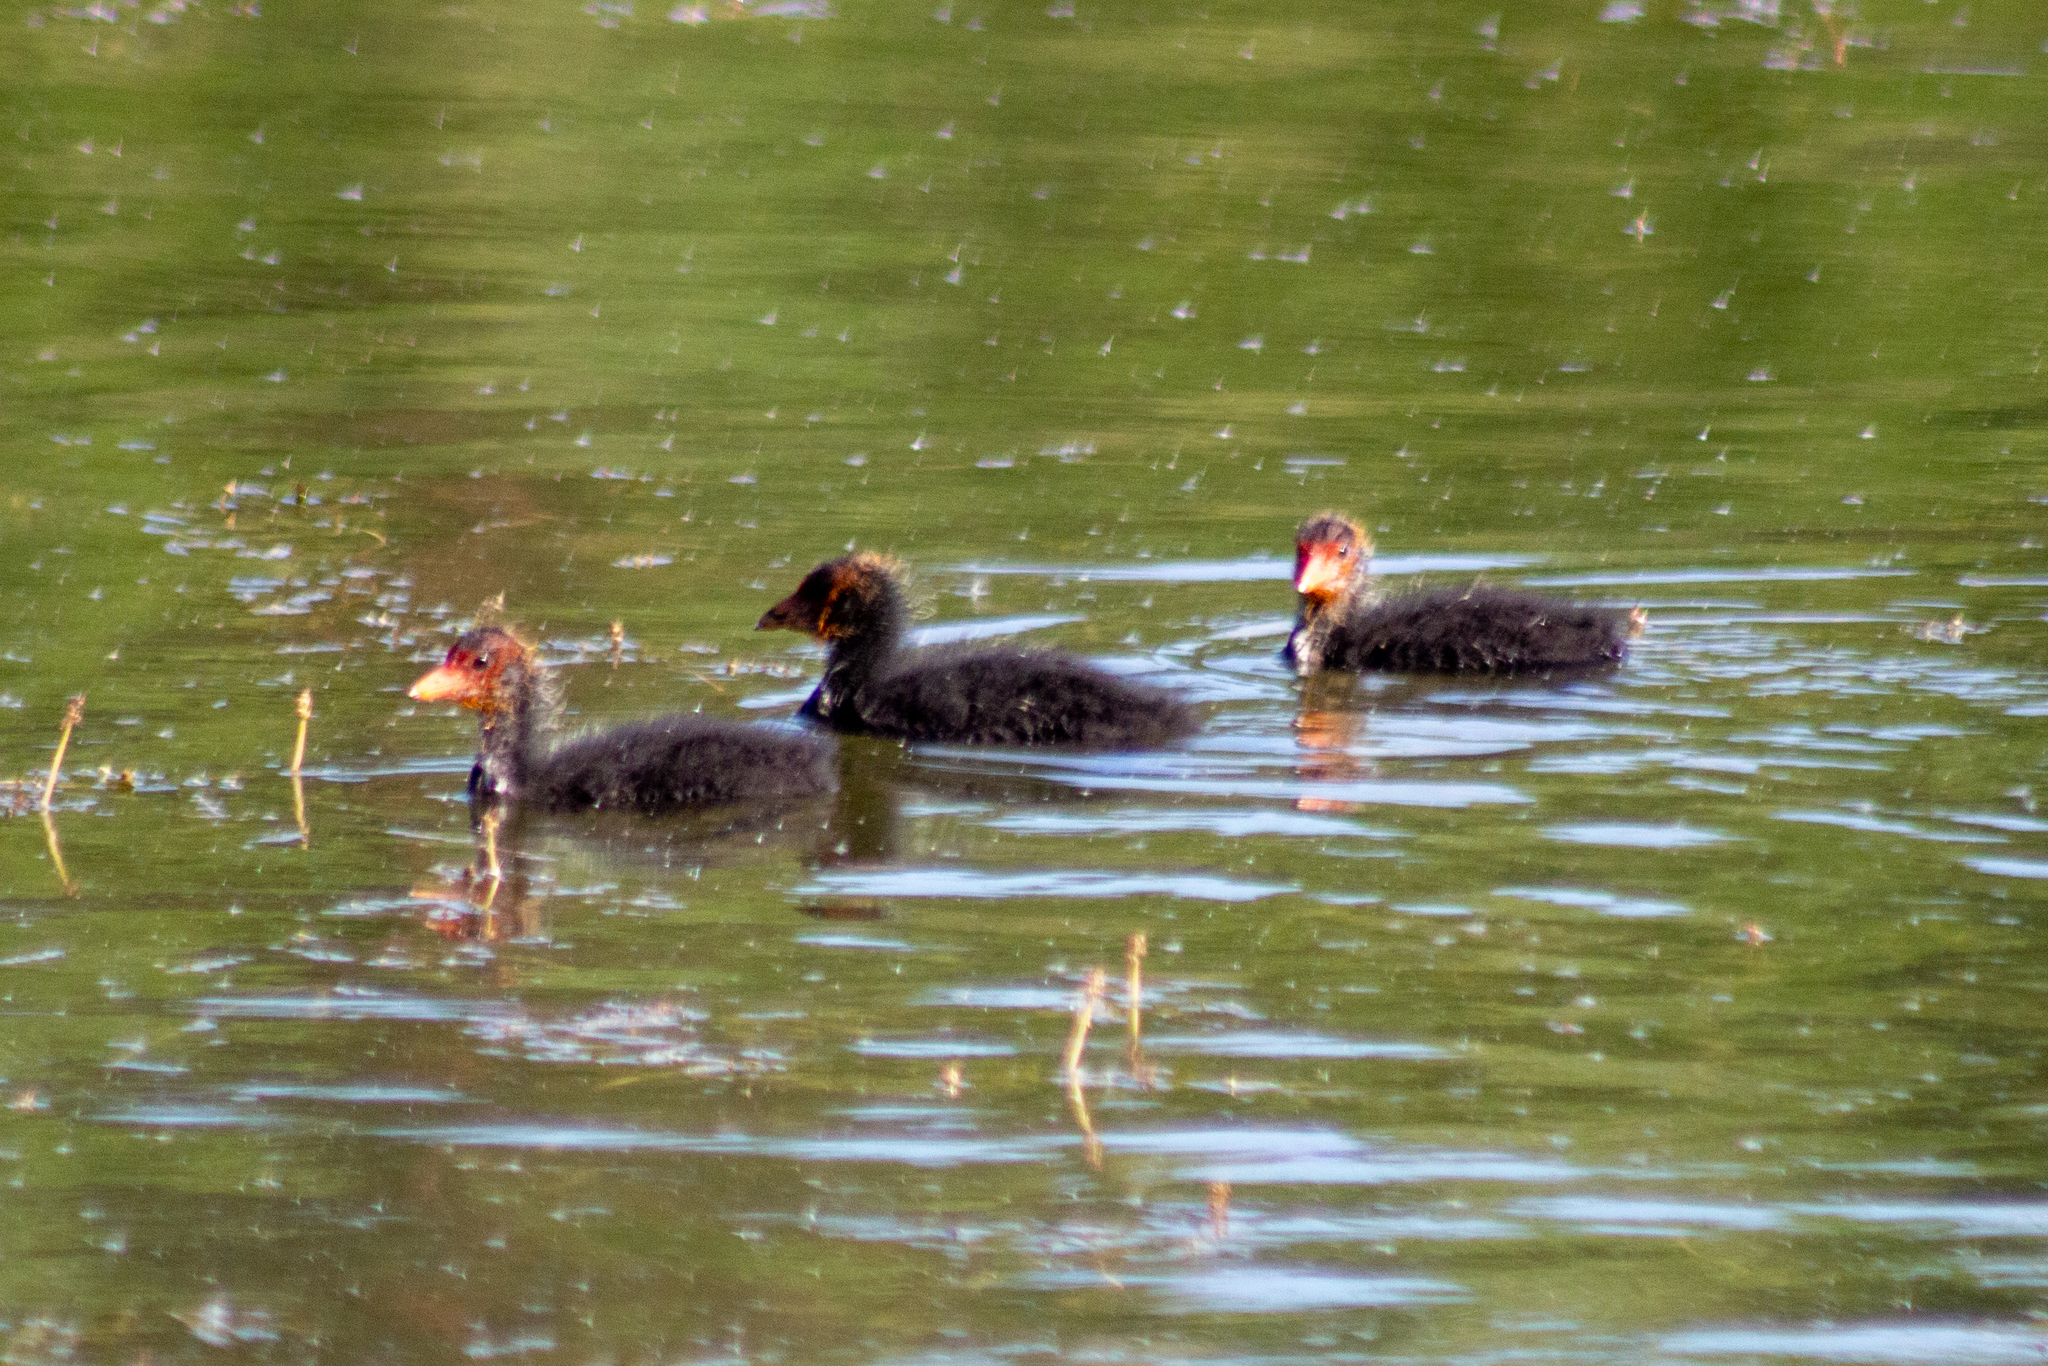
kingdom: Animalia
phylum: Chordata
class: Aves
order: Gruiformes
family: Rallidae
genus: Fulica
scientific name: Fulica atra
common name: Eurasian coot
